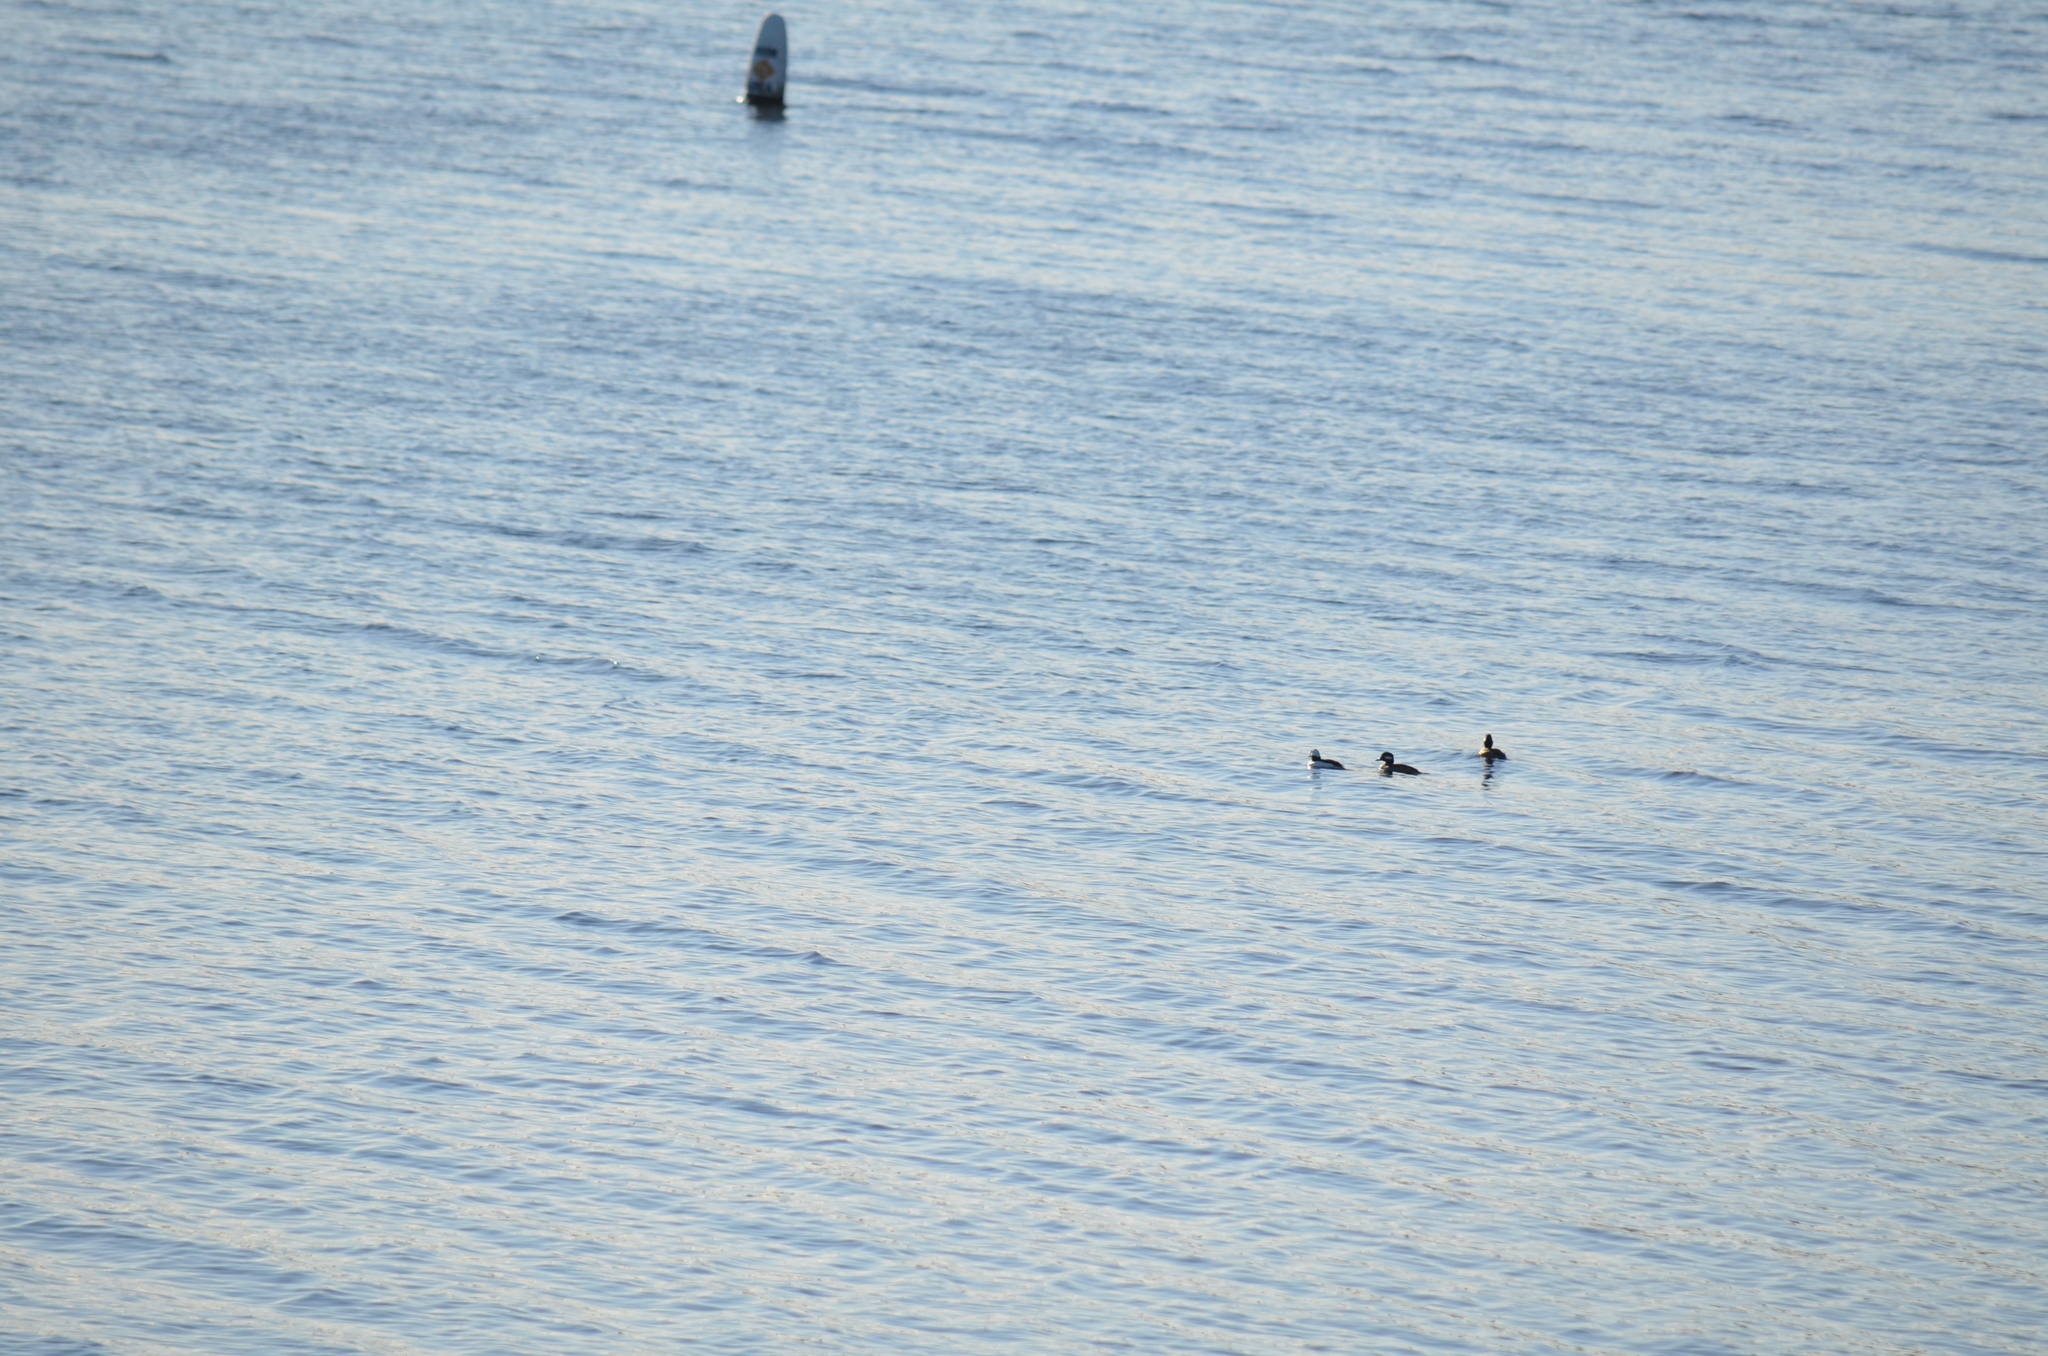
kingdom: Animalia
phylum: Chordata
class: Aves
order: Anseriformes
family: Anatidae
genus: Bucephala
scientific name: Bucephala albeola
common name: Bufflehead
